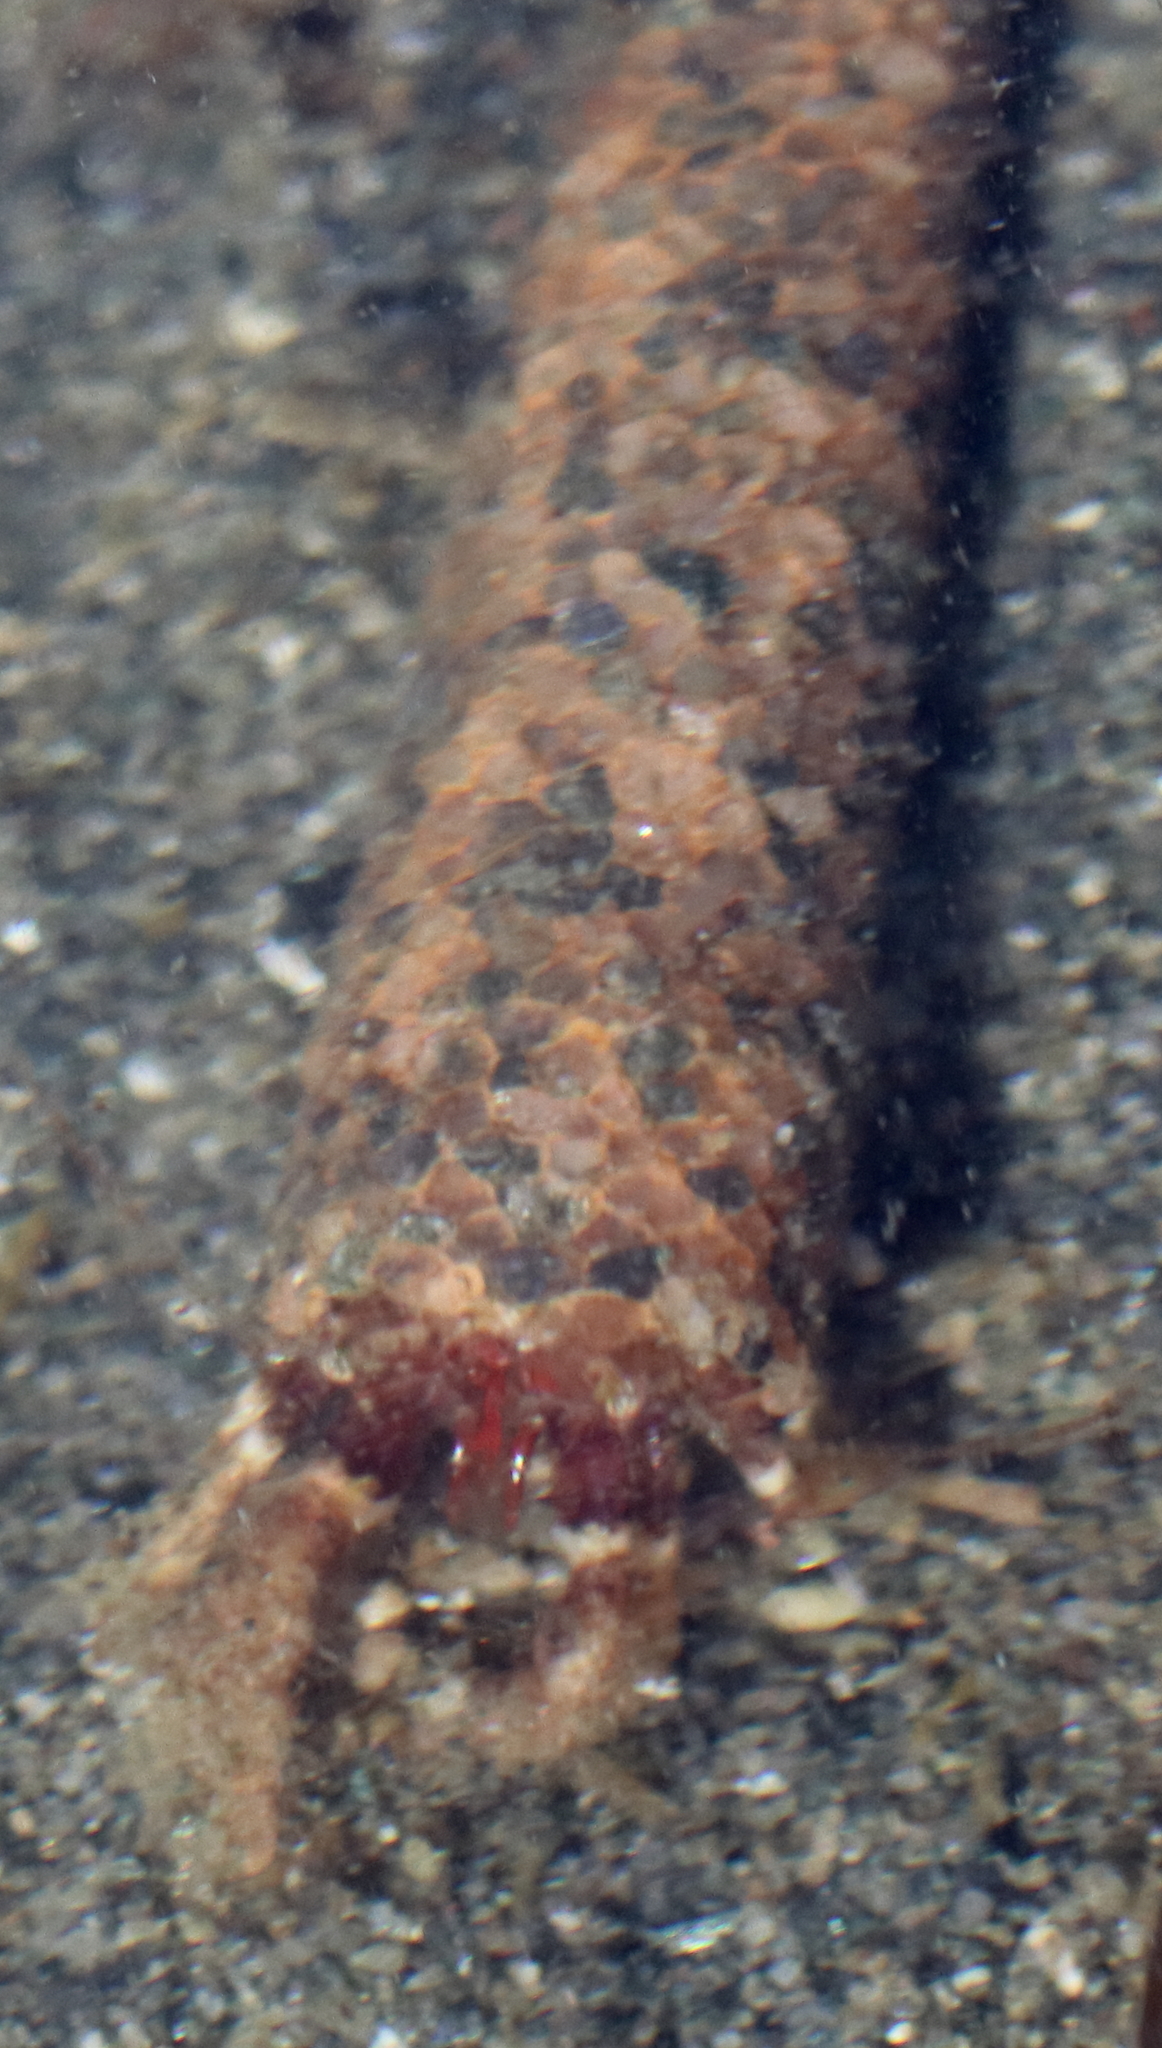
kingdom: Animalia
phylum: Arthropoda
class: Malacostraca
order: Decapoda
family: Paguridae
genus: Pagurus
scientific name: Pagurus caurinus
